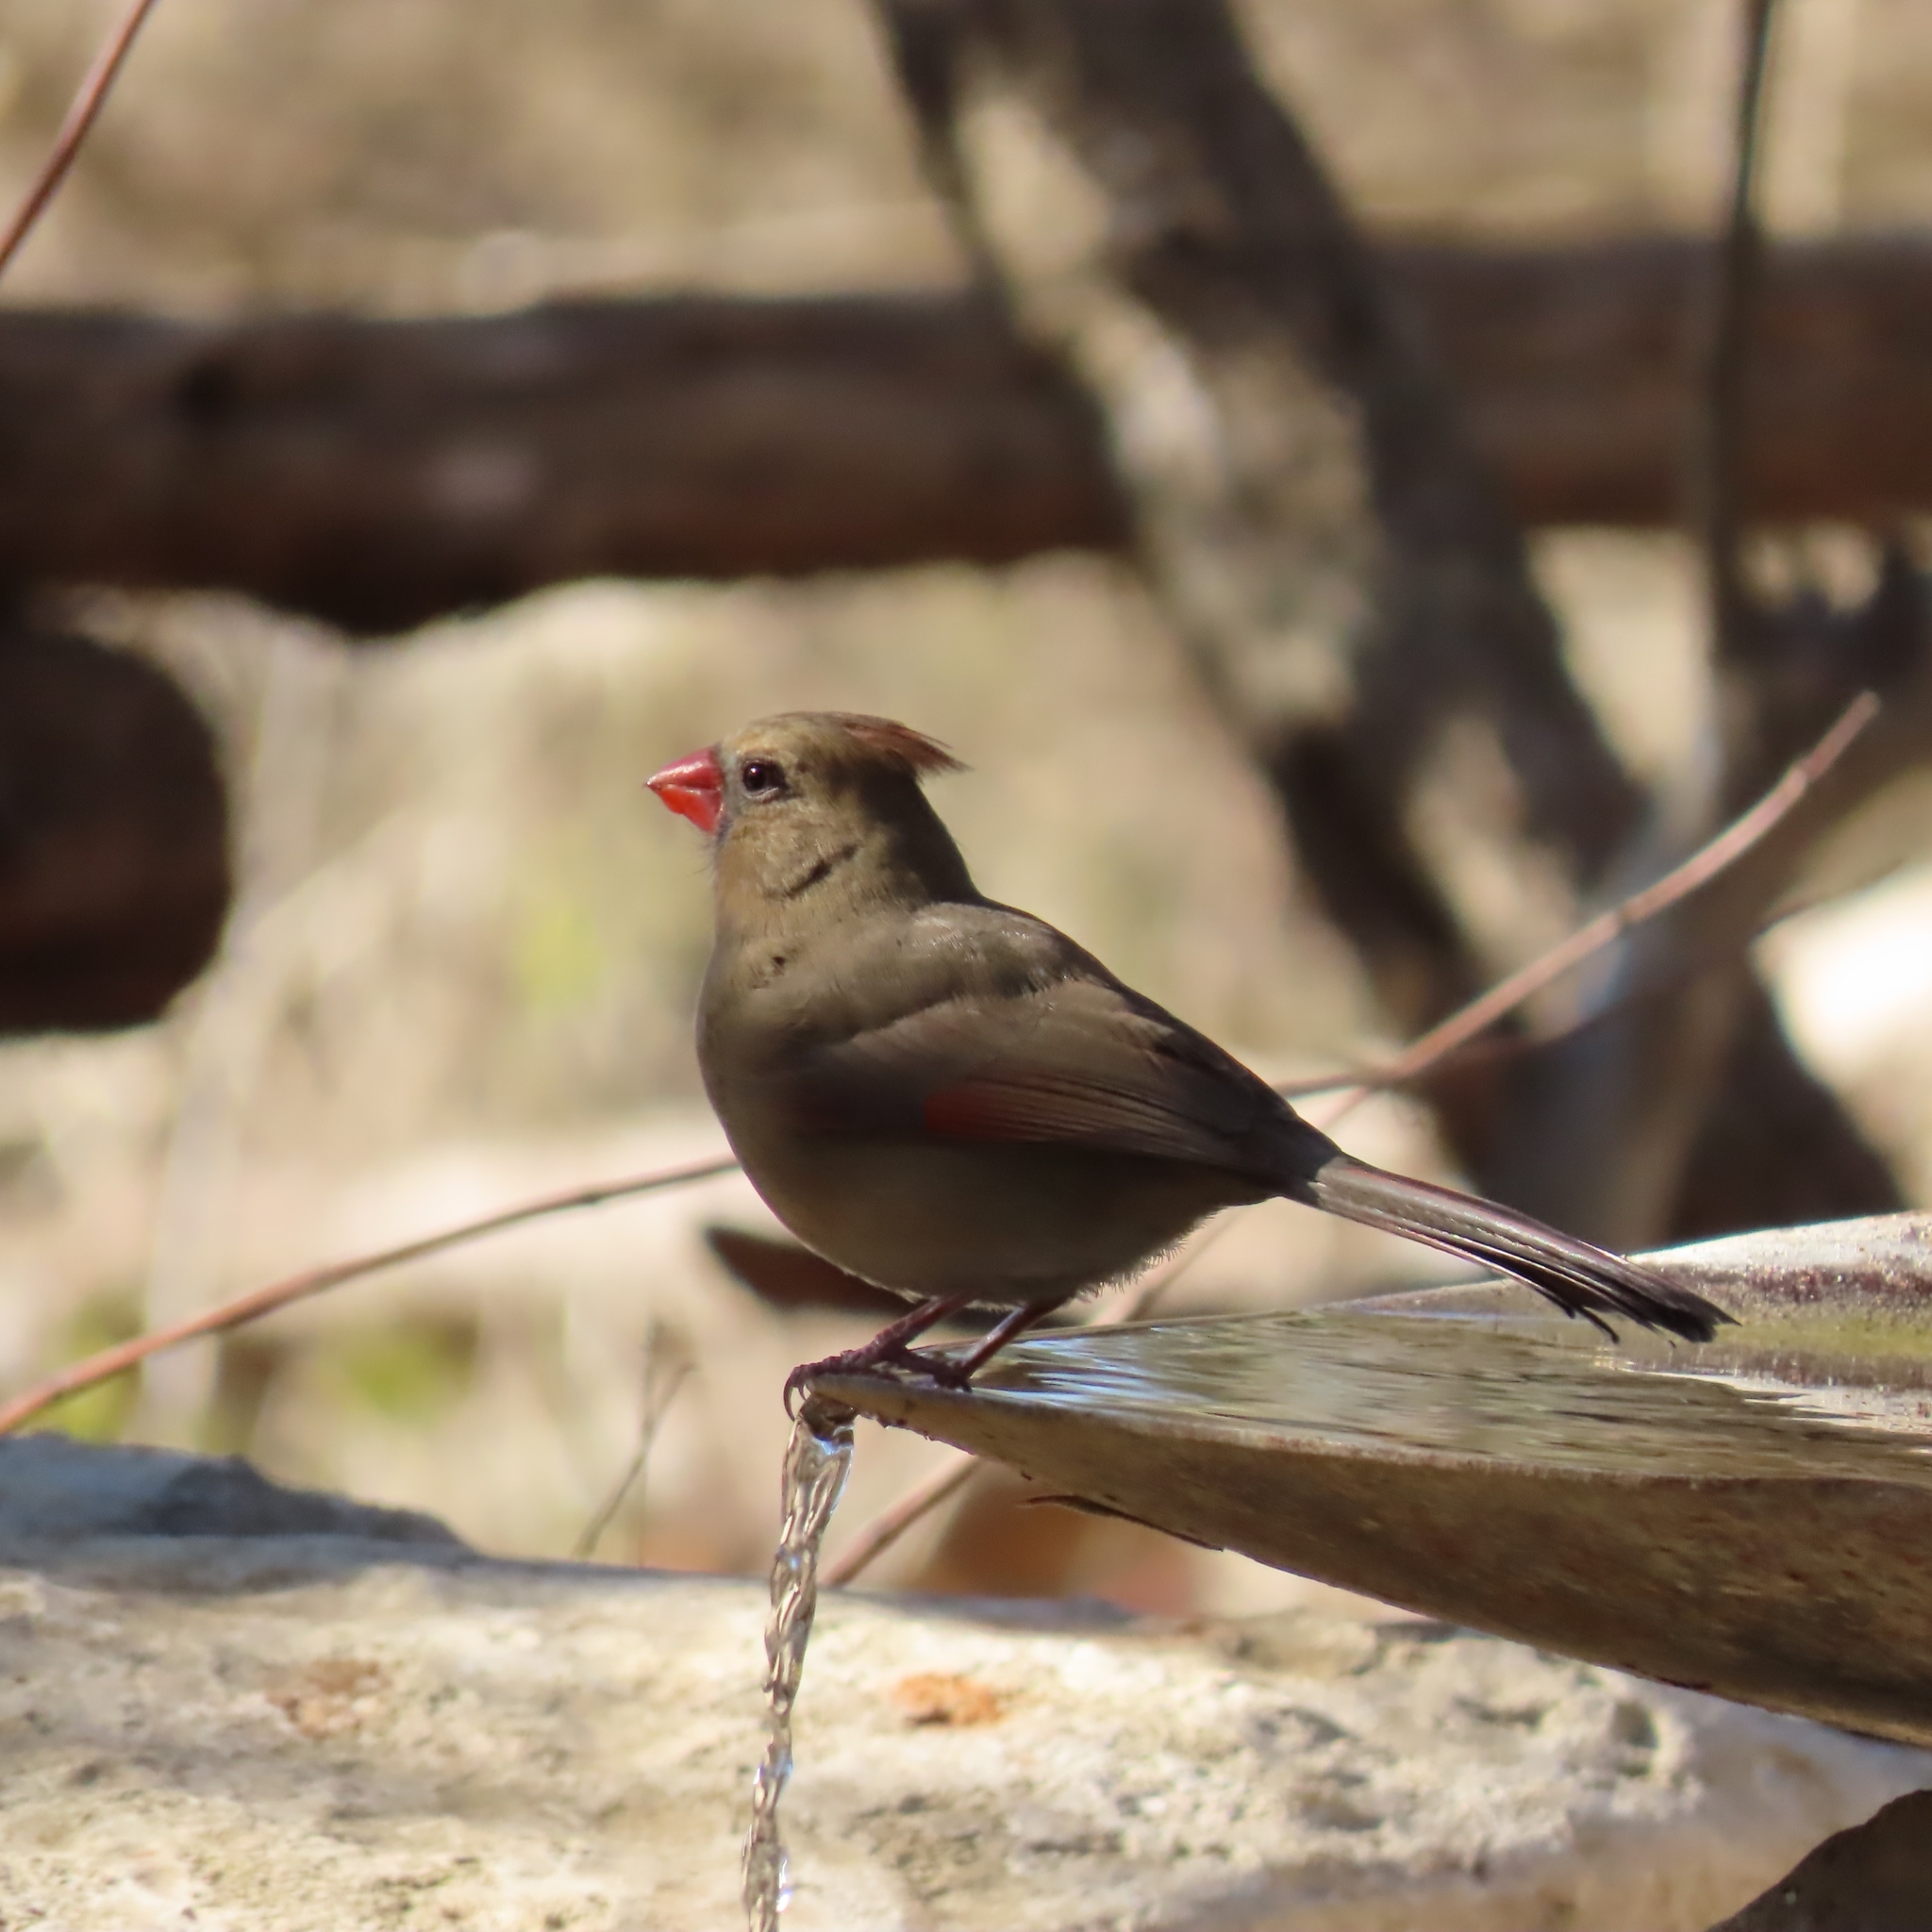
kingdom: Animalia
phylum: Chordata
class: Aves
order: Passeriformes
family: Cardinalidae
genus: Cardinalis
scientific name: Cardinalis cardinalis
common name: Northern cardinal
